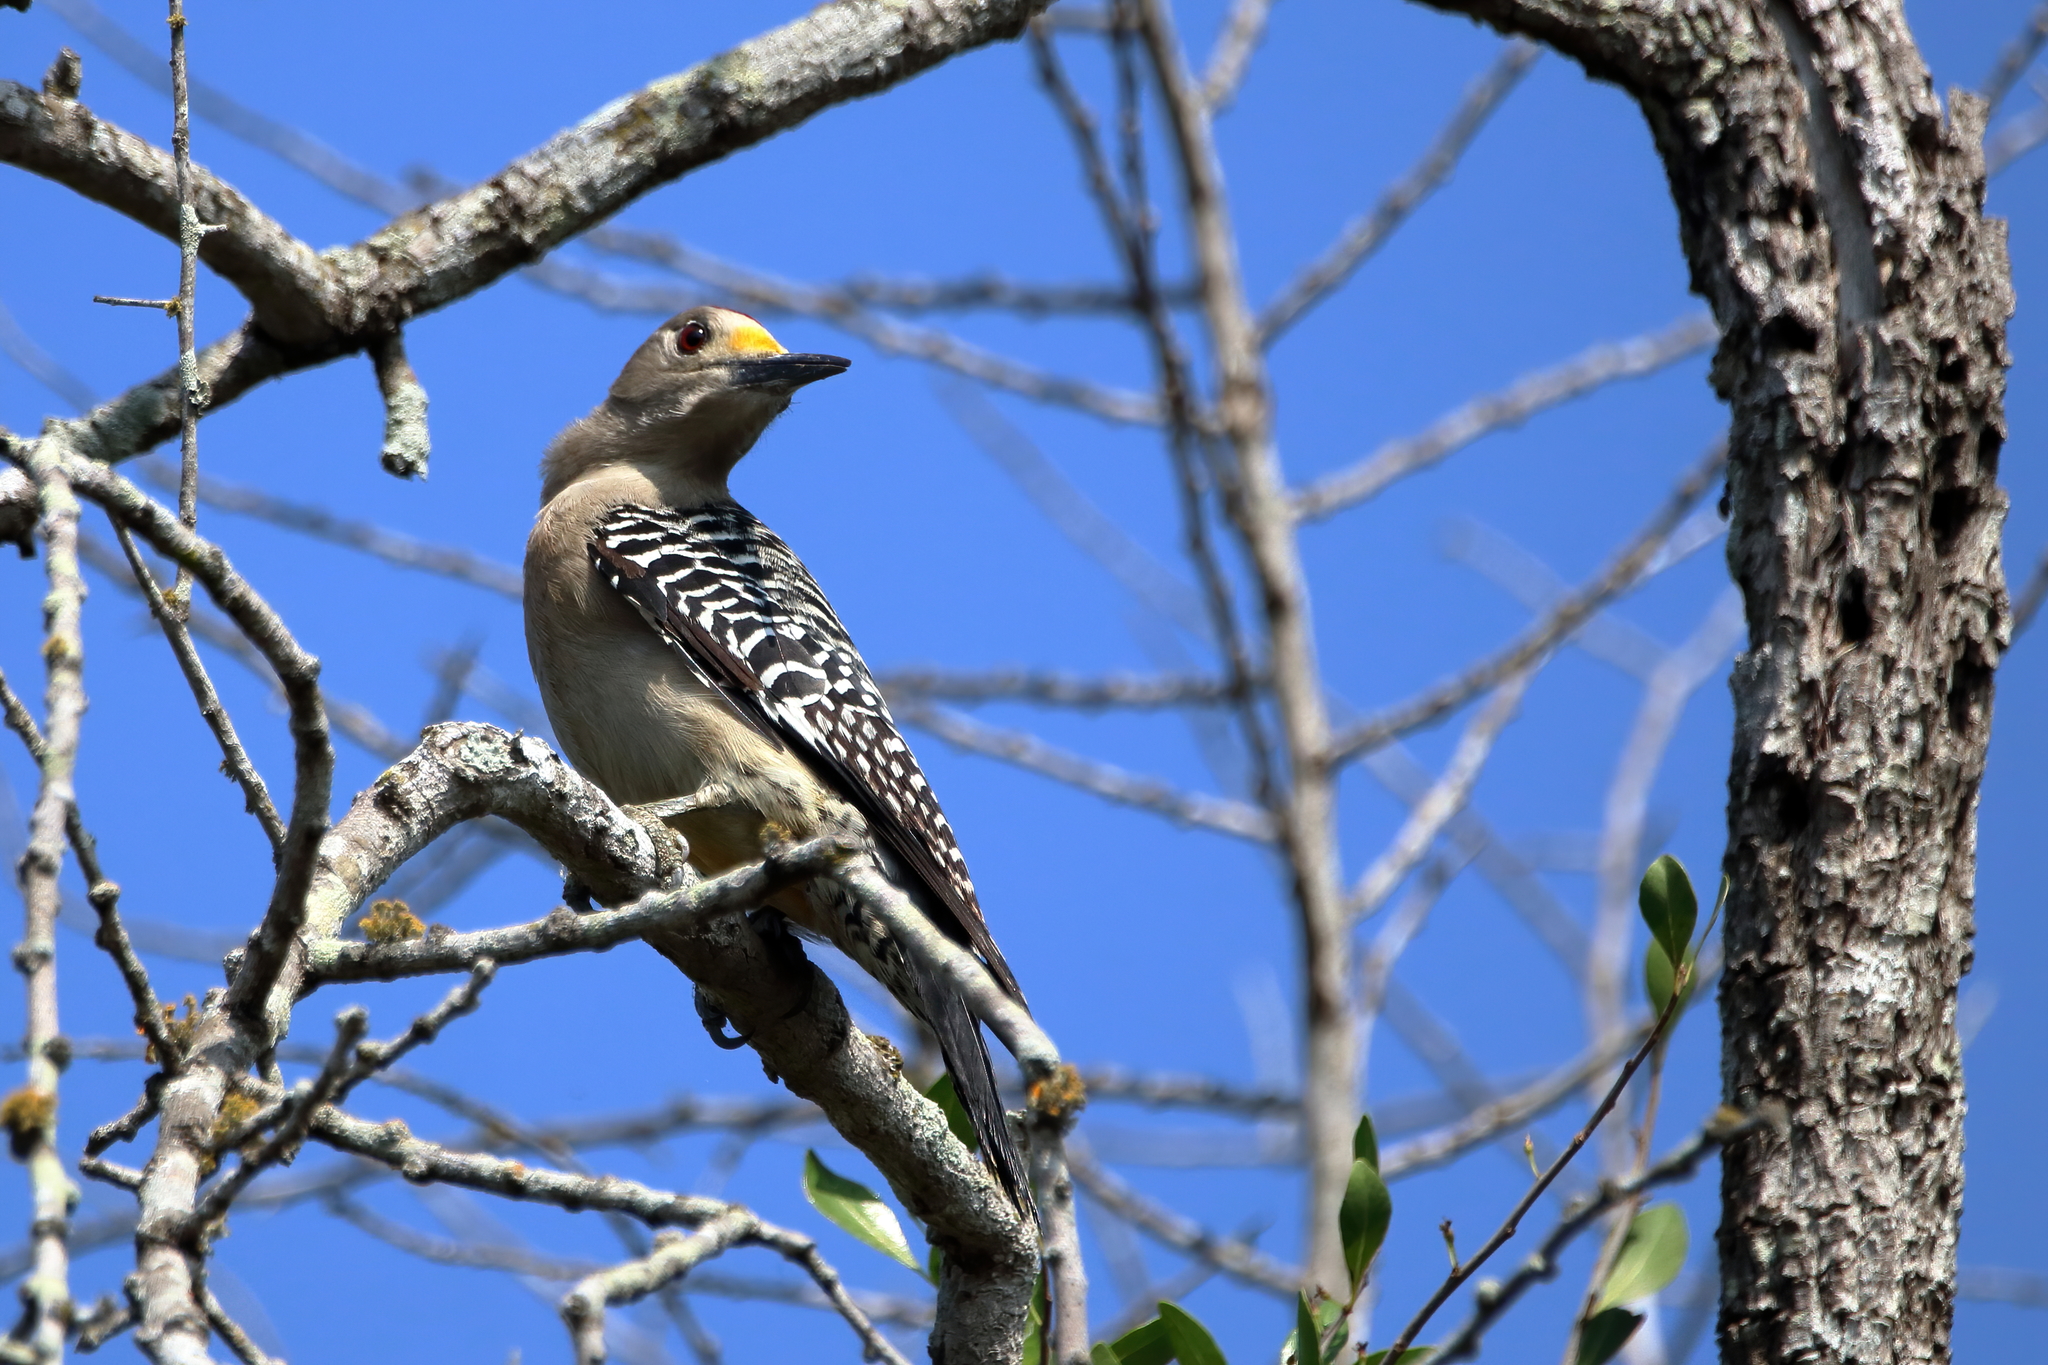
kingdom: Animalia
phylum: Chordata
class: Aves
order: Piciformes
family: Picidae
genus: Melanerpes
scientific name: Melanerpes aurifrons
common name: Golden-fronted woodpecker
